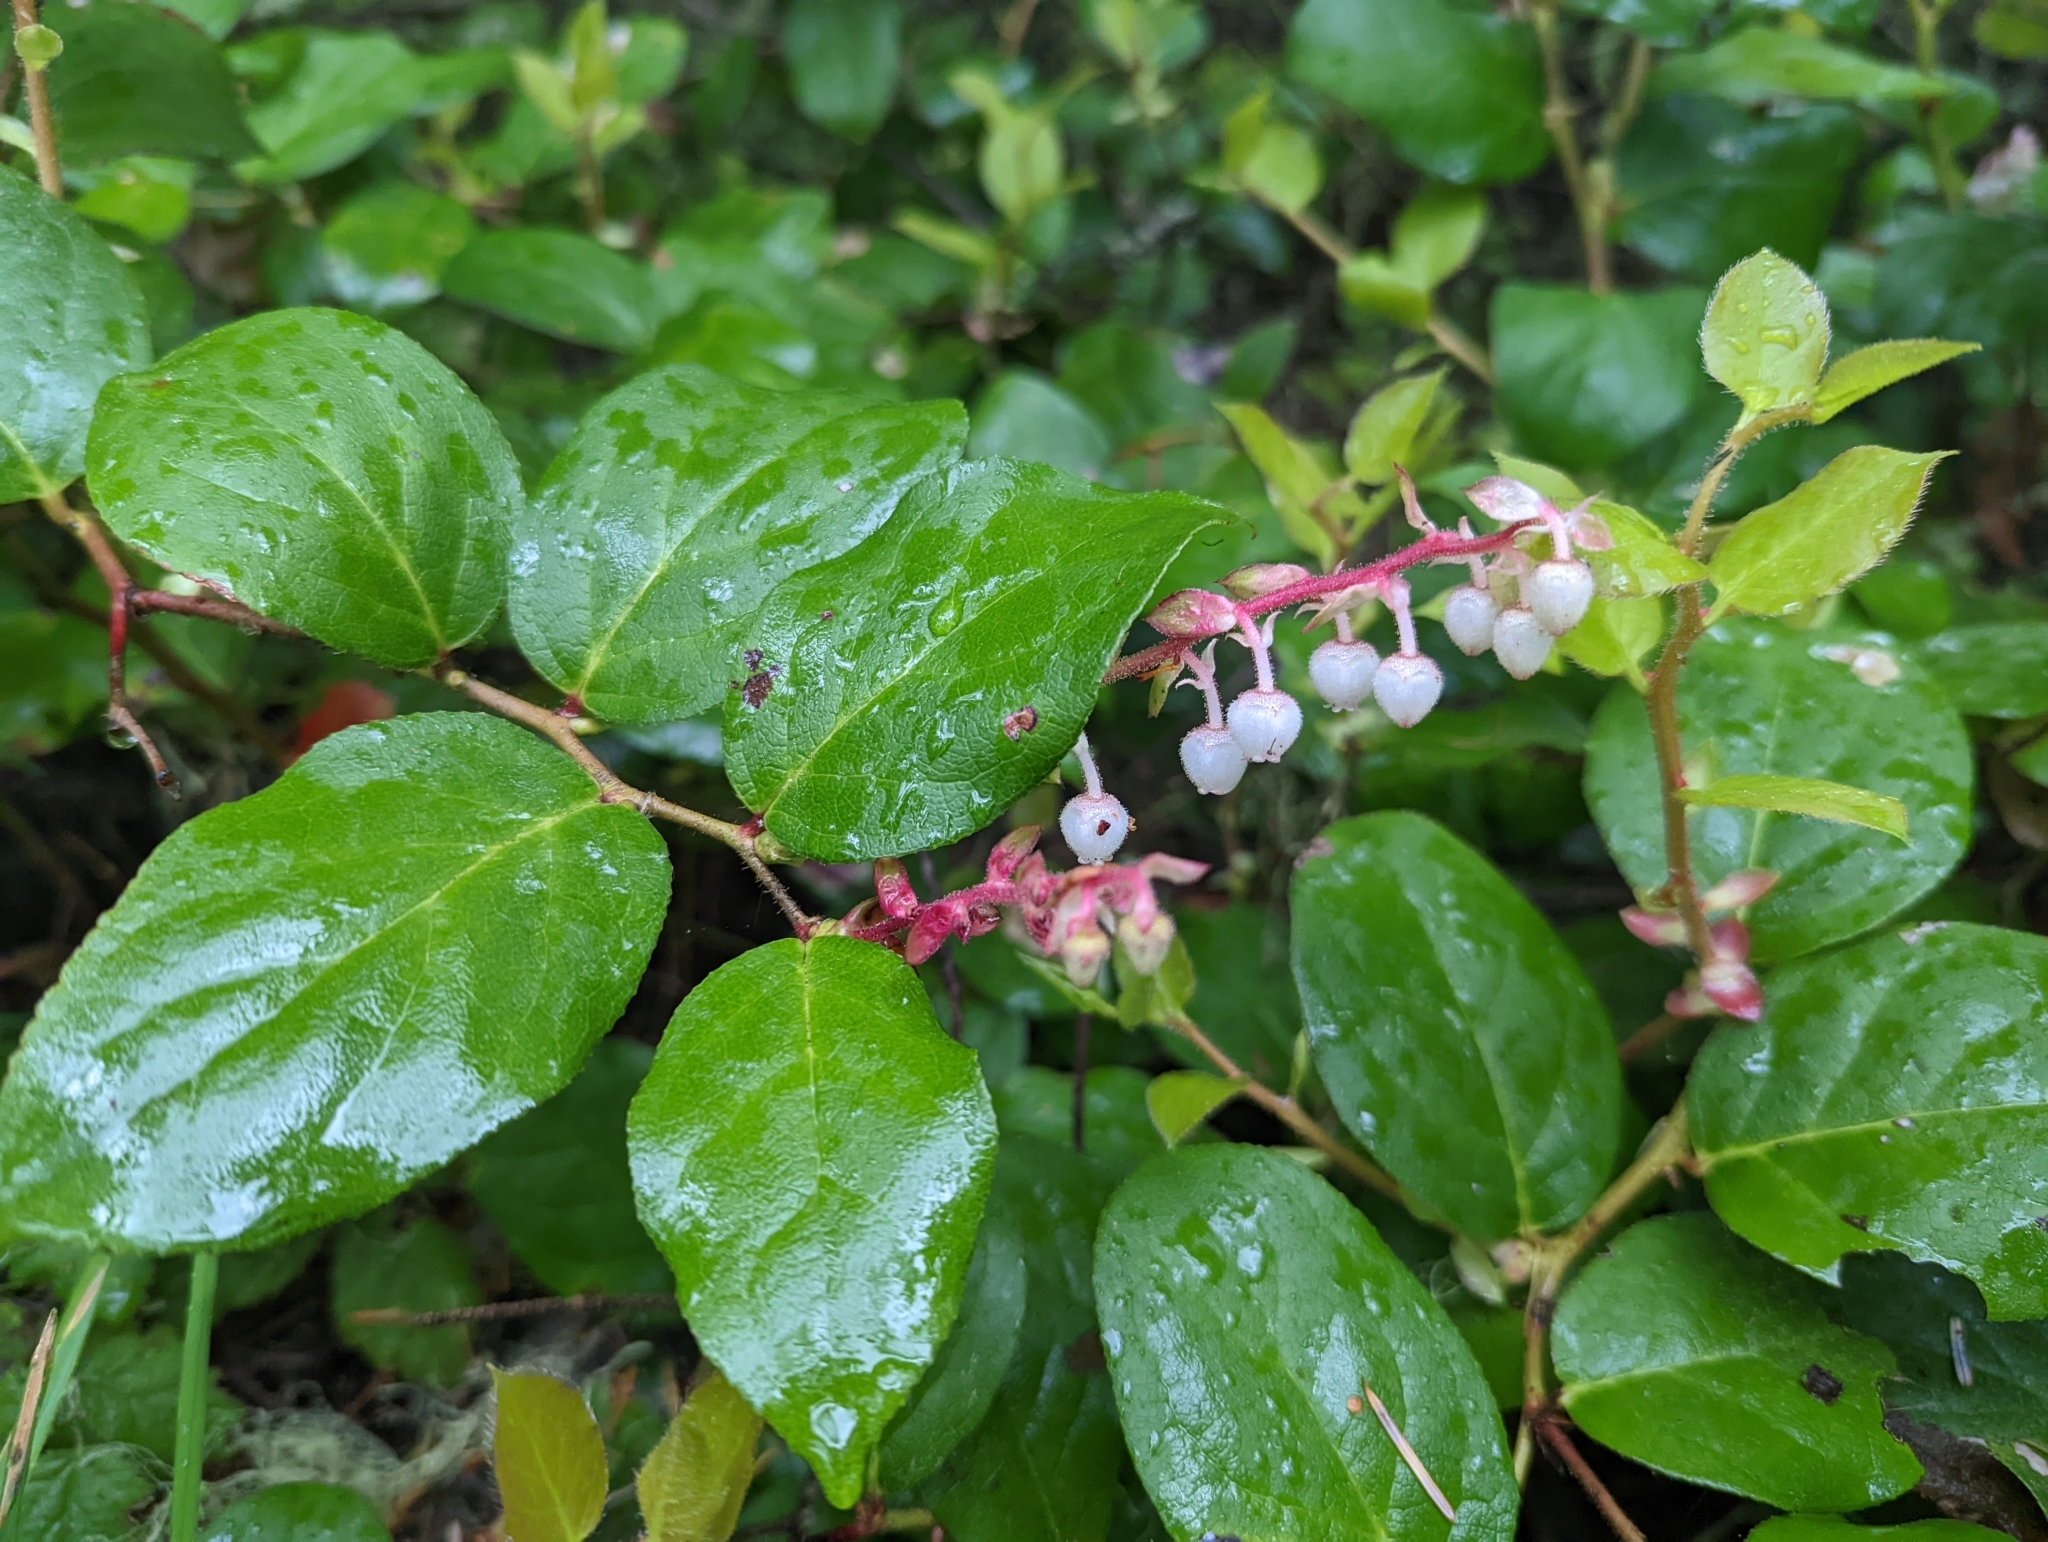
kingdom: Plantae
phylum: Tracheophyta
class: Magnoliopsida
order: Ericales
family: Ericaceae
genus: Gaultheria
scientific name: Gaultheria shallon
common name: Shallon
